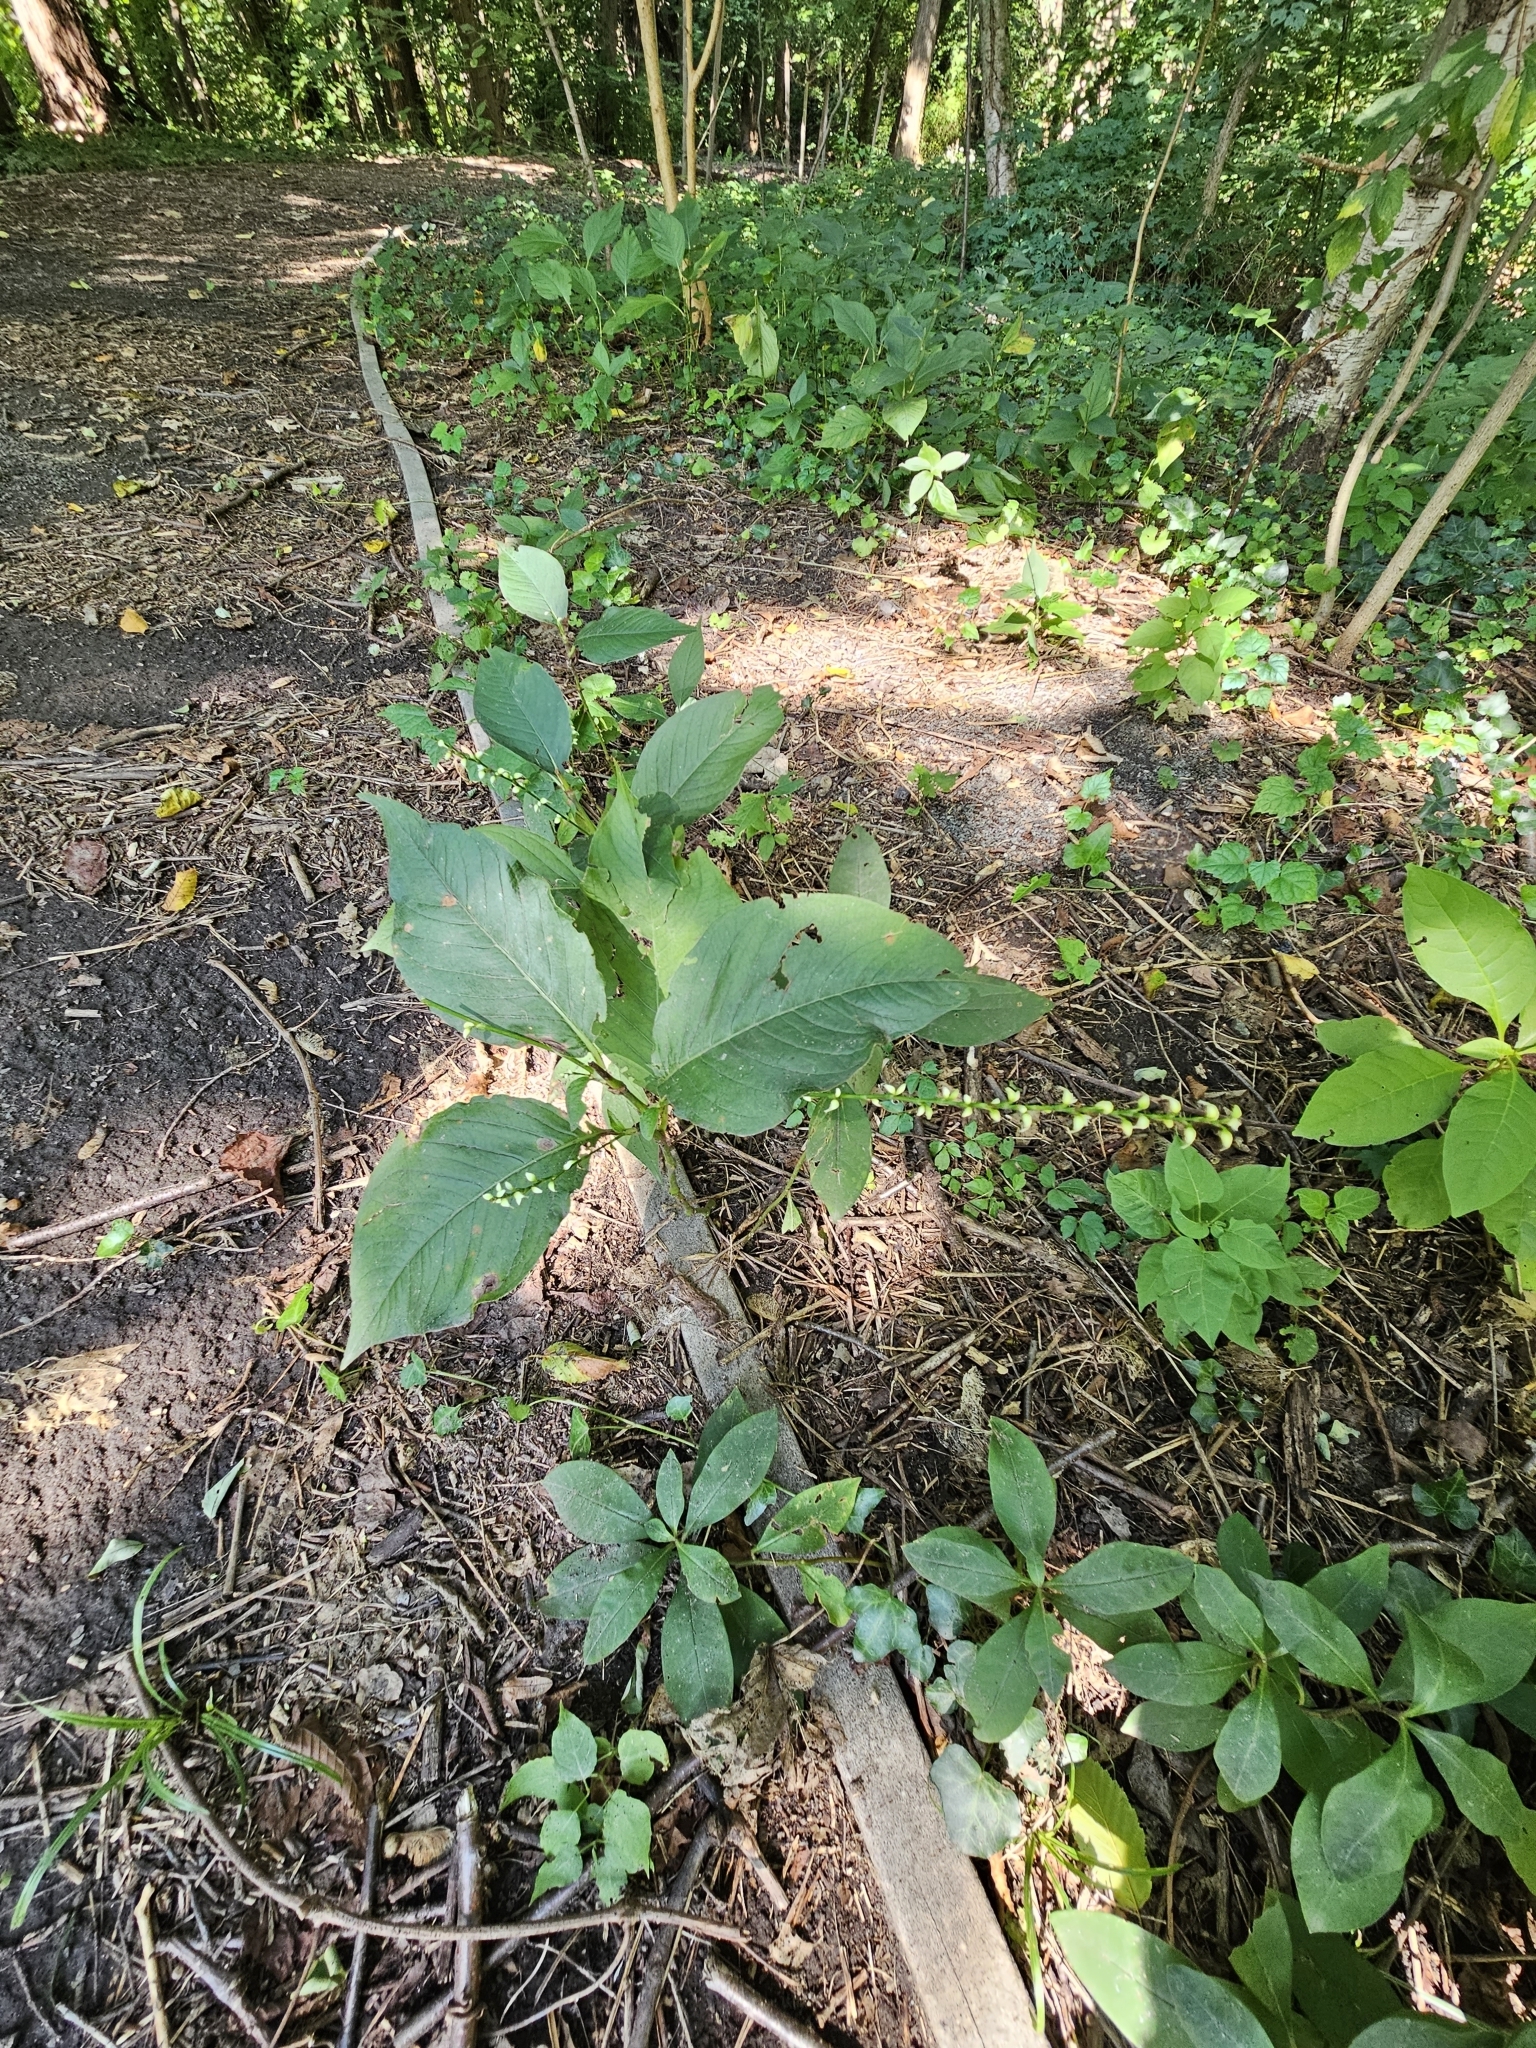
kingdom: Plantae
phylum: Tracheophyta
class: Magnoliopsida
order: Caryophyllales
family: Polygonaceae
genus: Persicaria
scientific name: Persicaria virginiana
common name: Jumpseed
